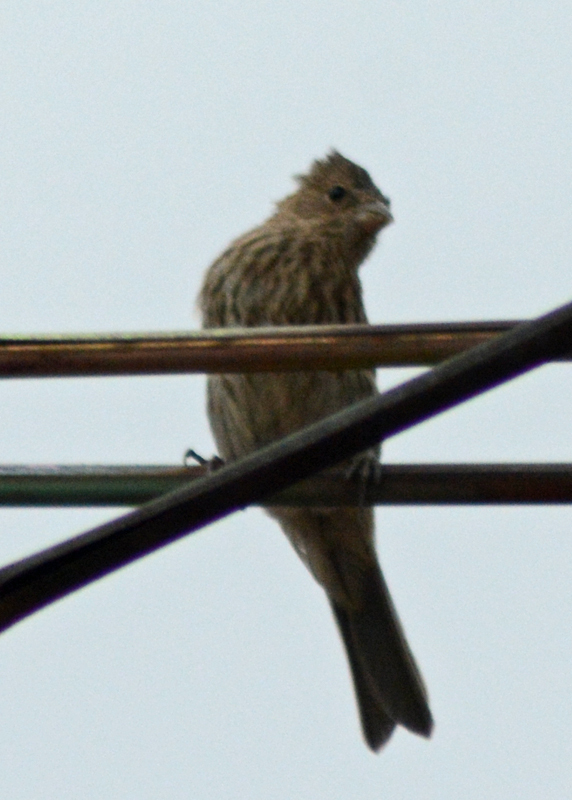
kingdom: Animalia
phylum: Chordata
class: Aves
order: Passeriformes
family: Fringillidae
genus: Haemorhous
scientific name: Haemorhous mexicanus
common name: House finch
